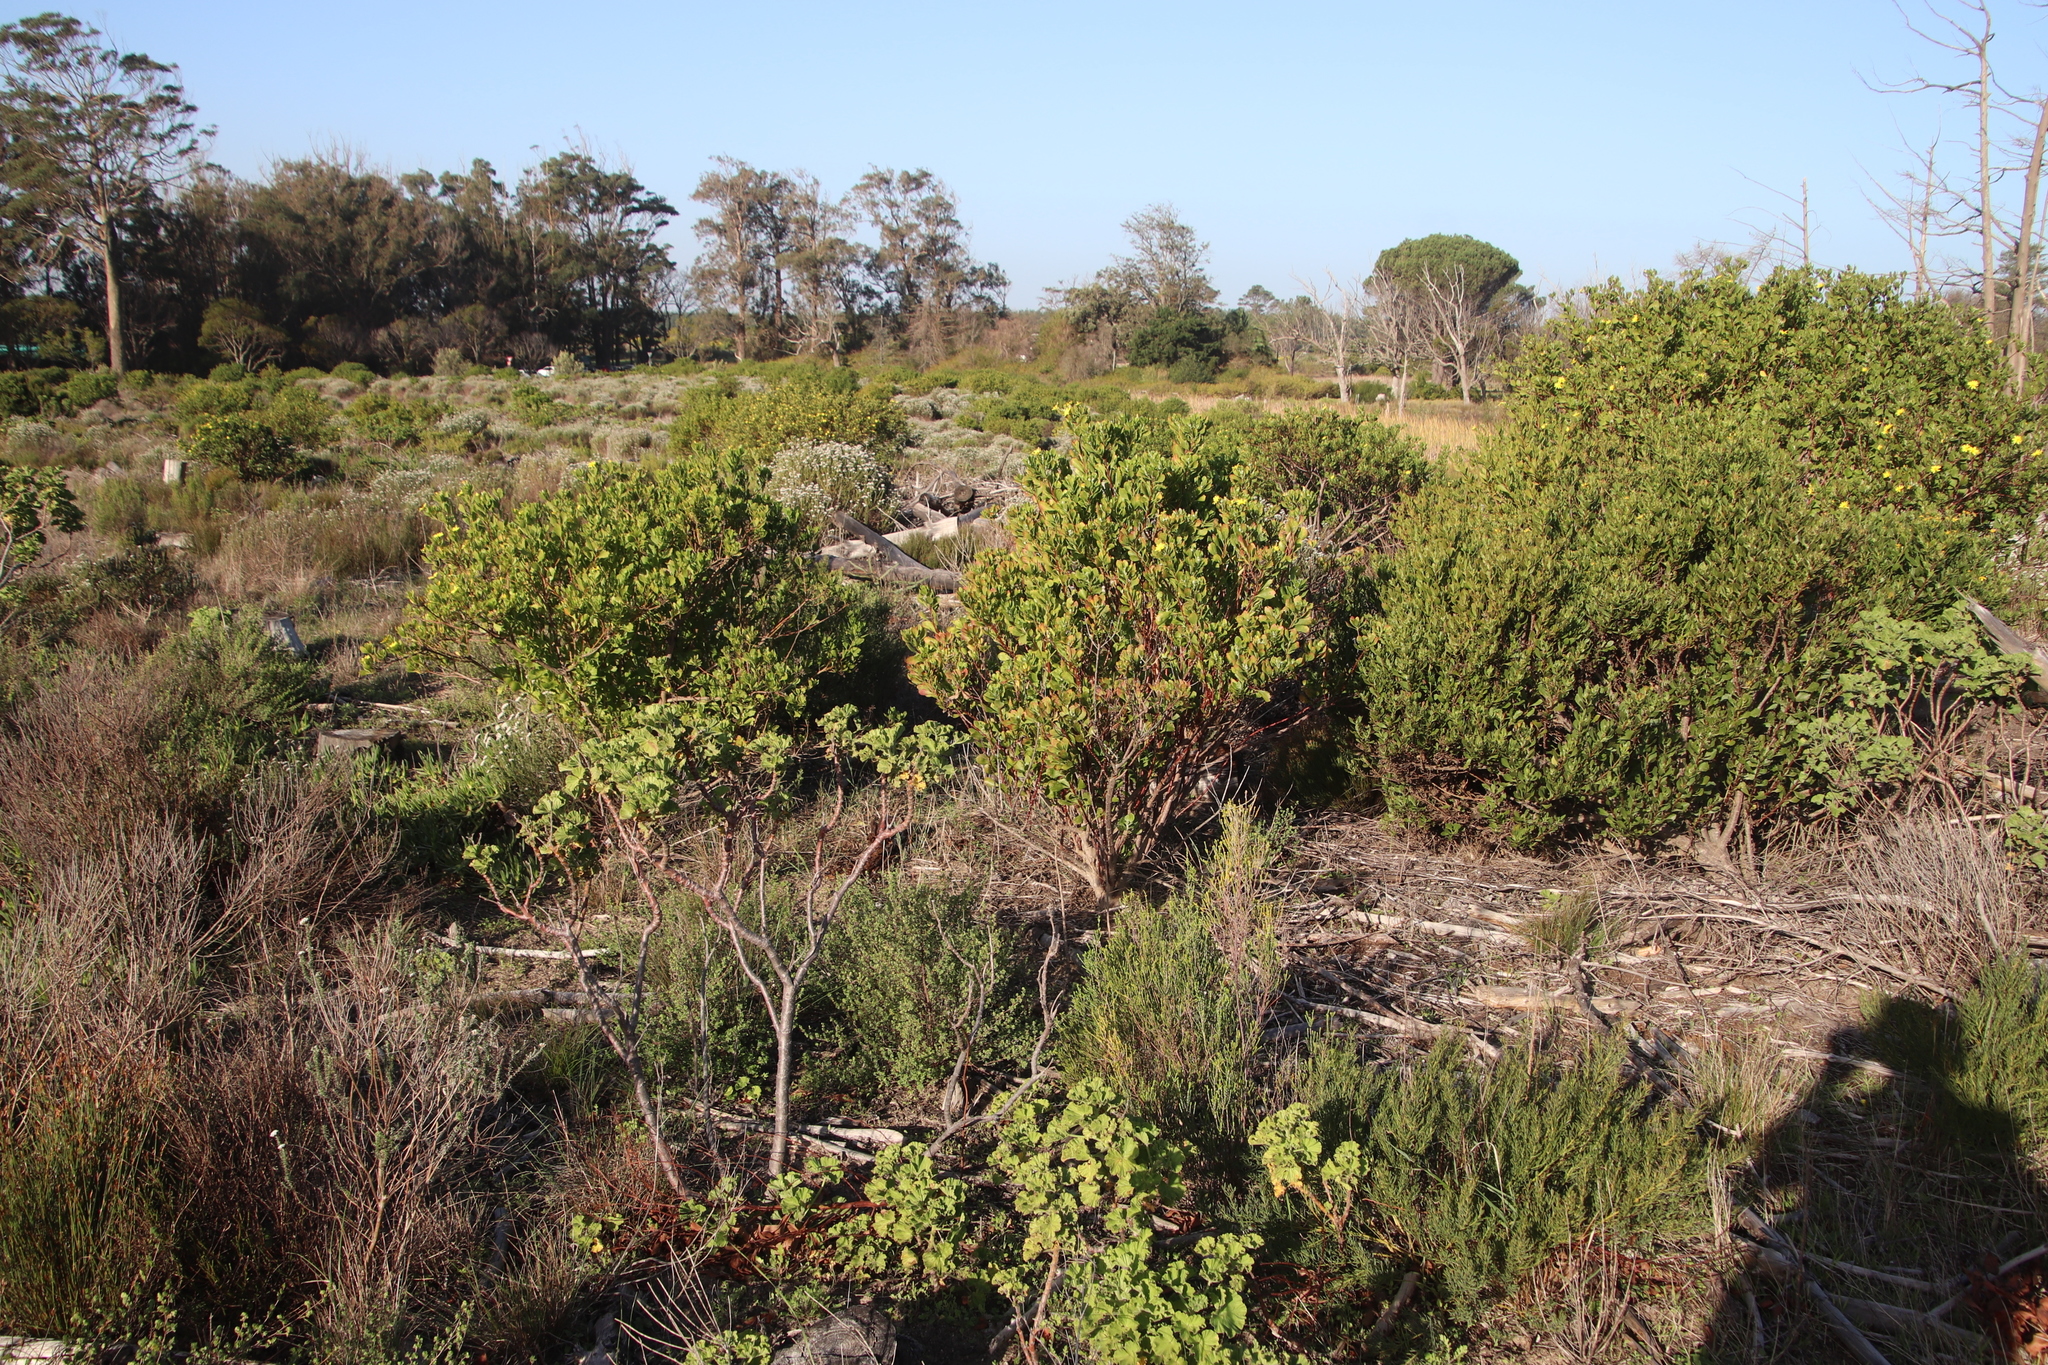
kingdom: Plantae
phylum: Tracheophyta
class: Magnoliopsida
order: Asterales
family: Asteraceae
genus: Osteospermum
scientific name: Osteospermum moniliferum
